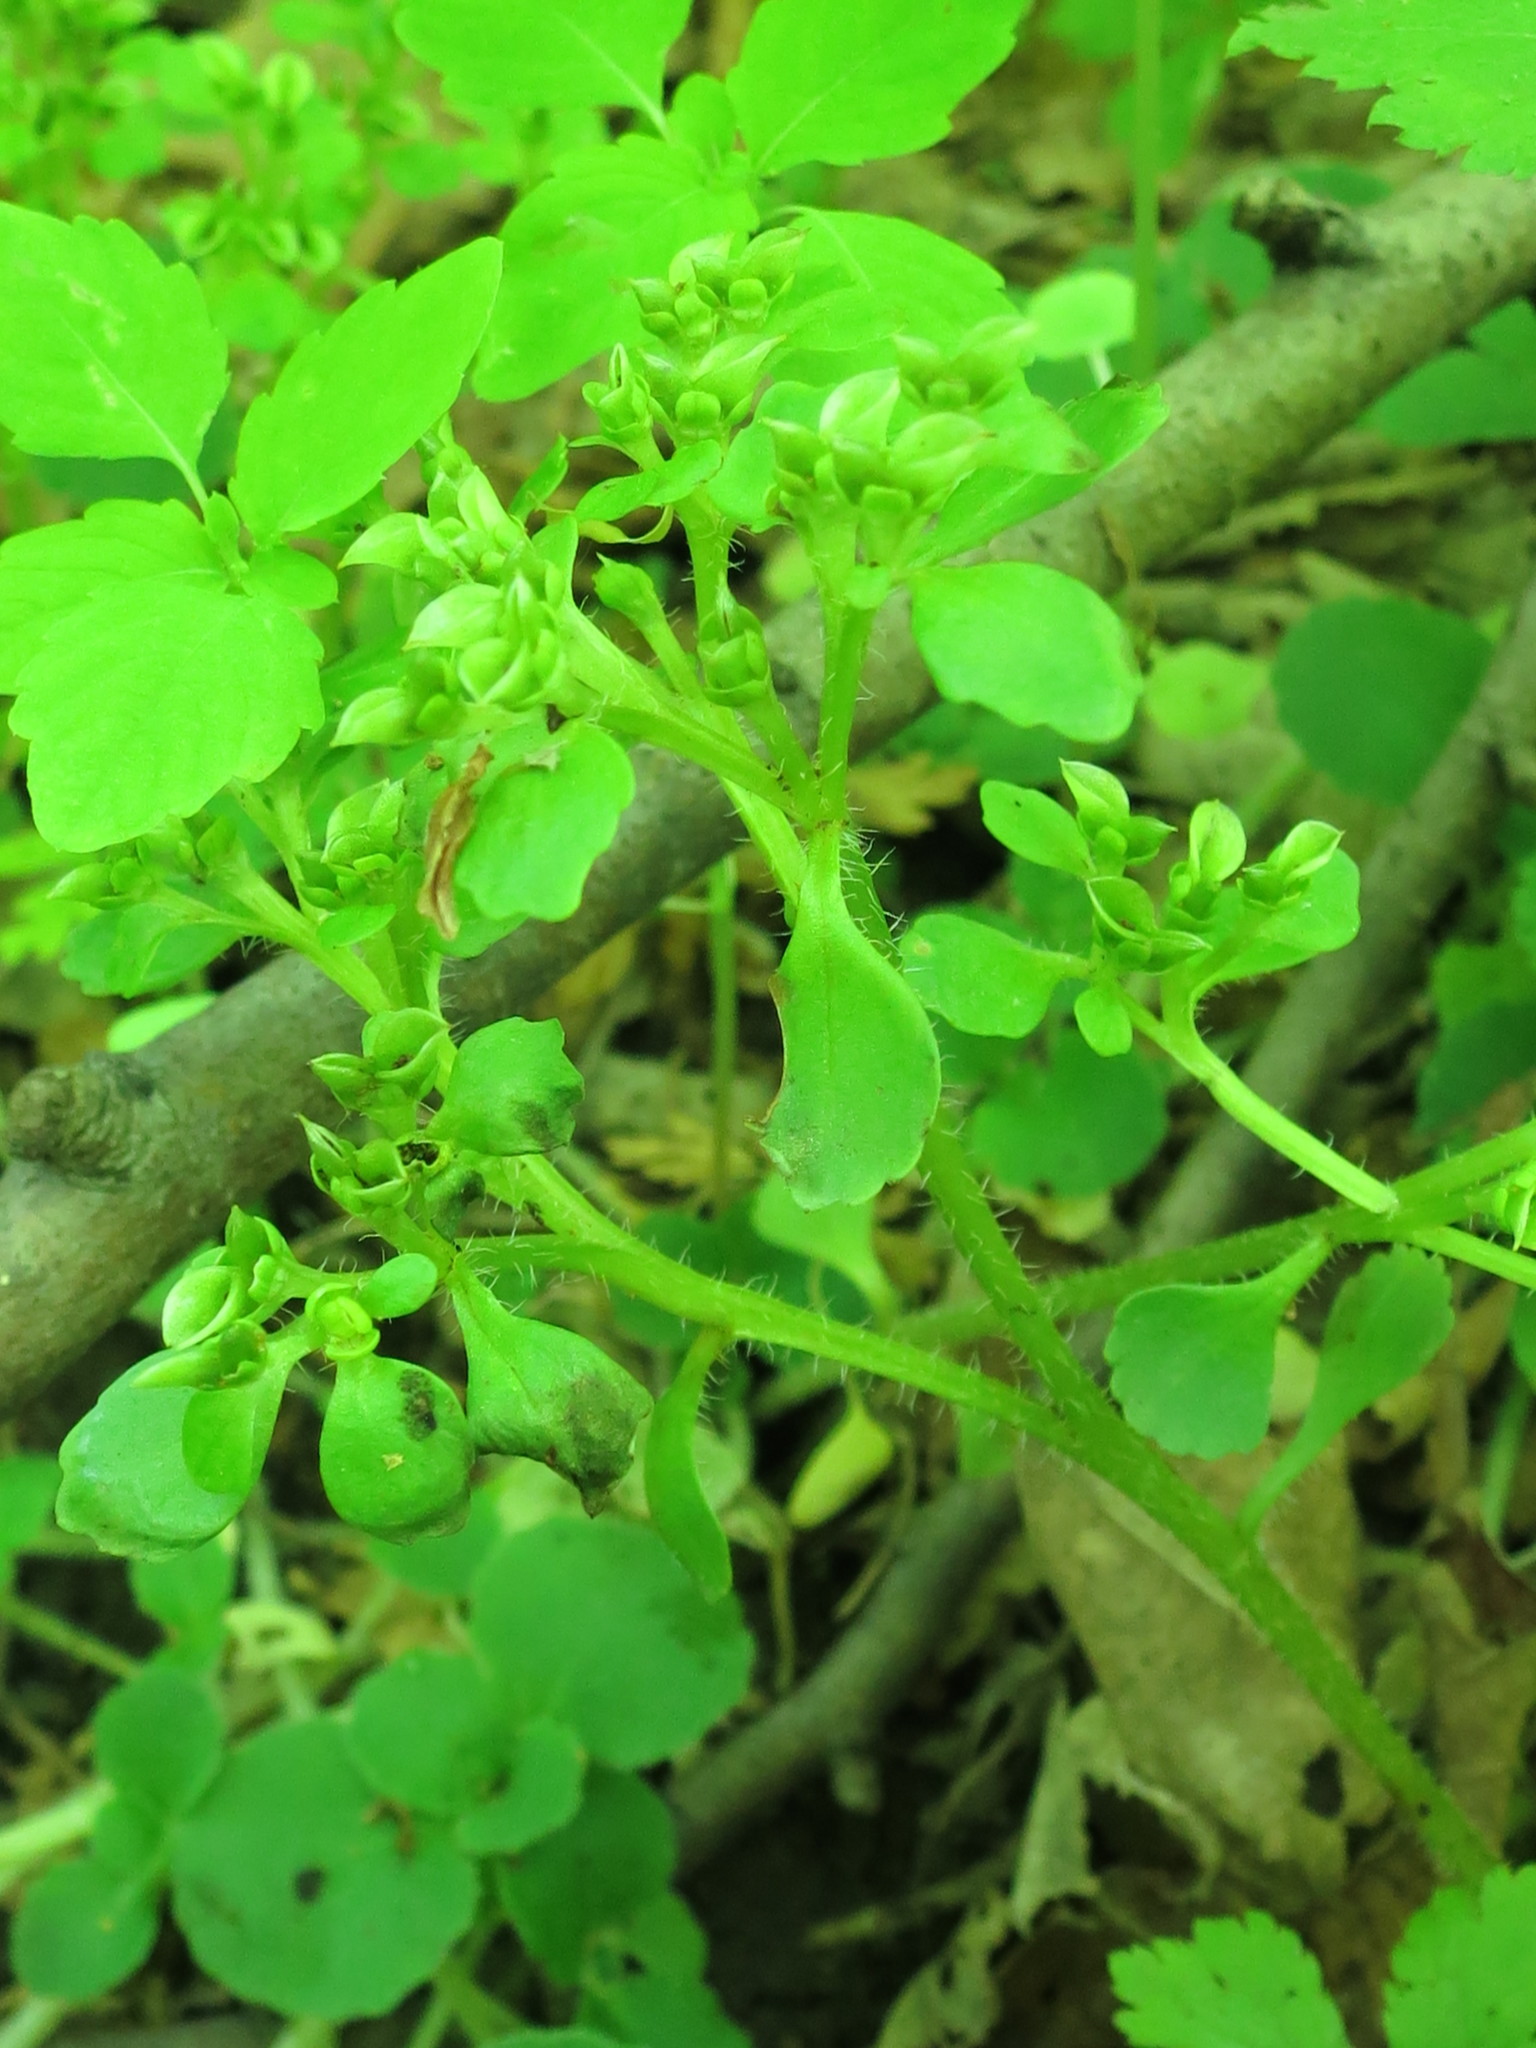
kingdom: Plantae
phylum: Tracheophyta
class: Magnoliopsida
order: Saxifragales
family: Saxifragaceae
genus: Chrysosplenium
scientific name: Chrysosplenium pilosum
